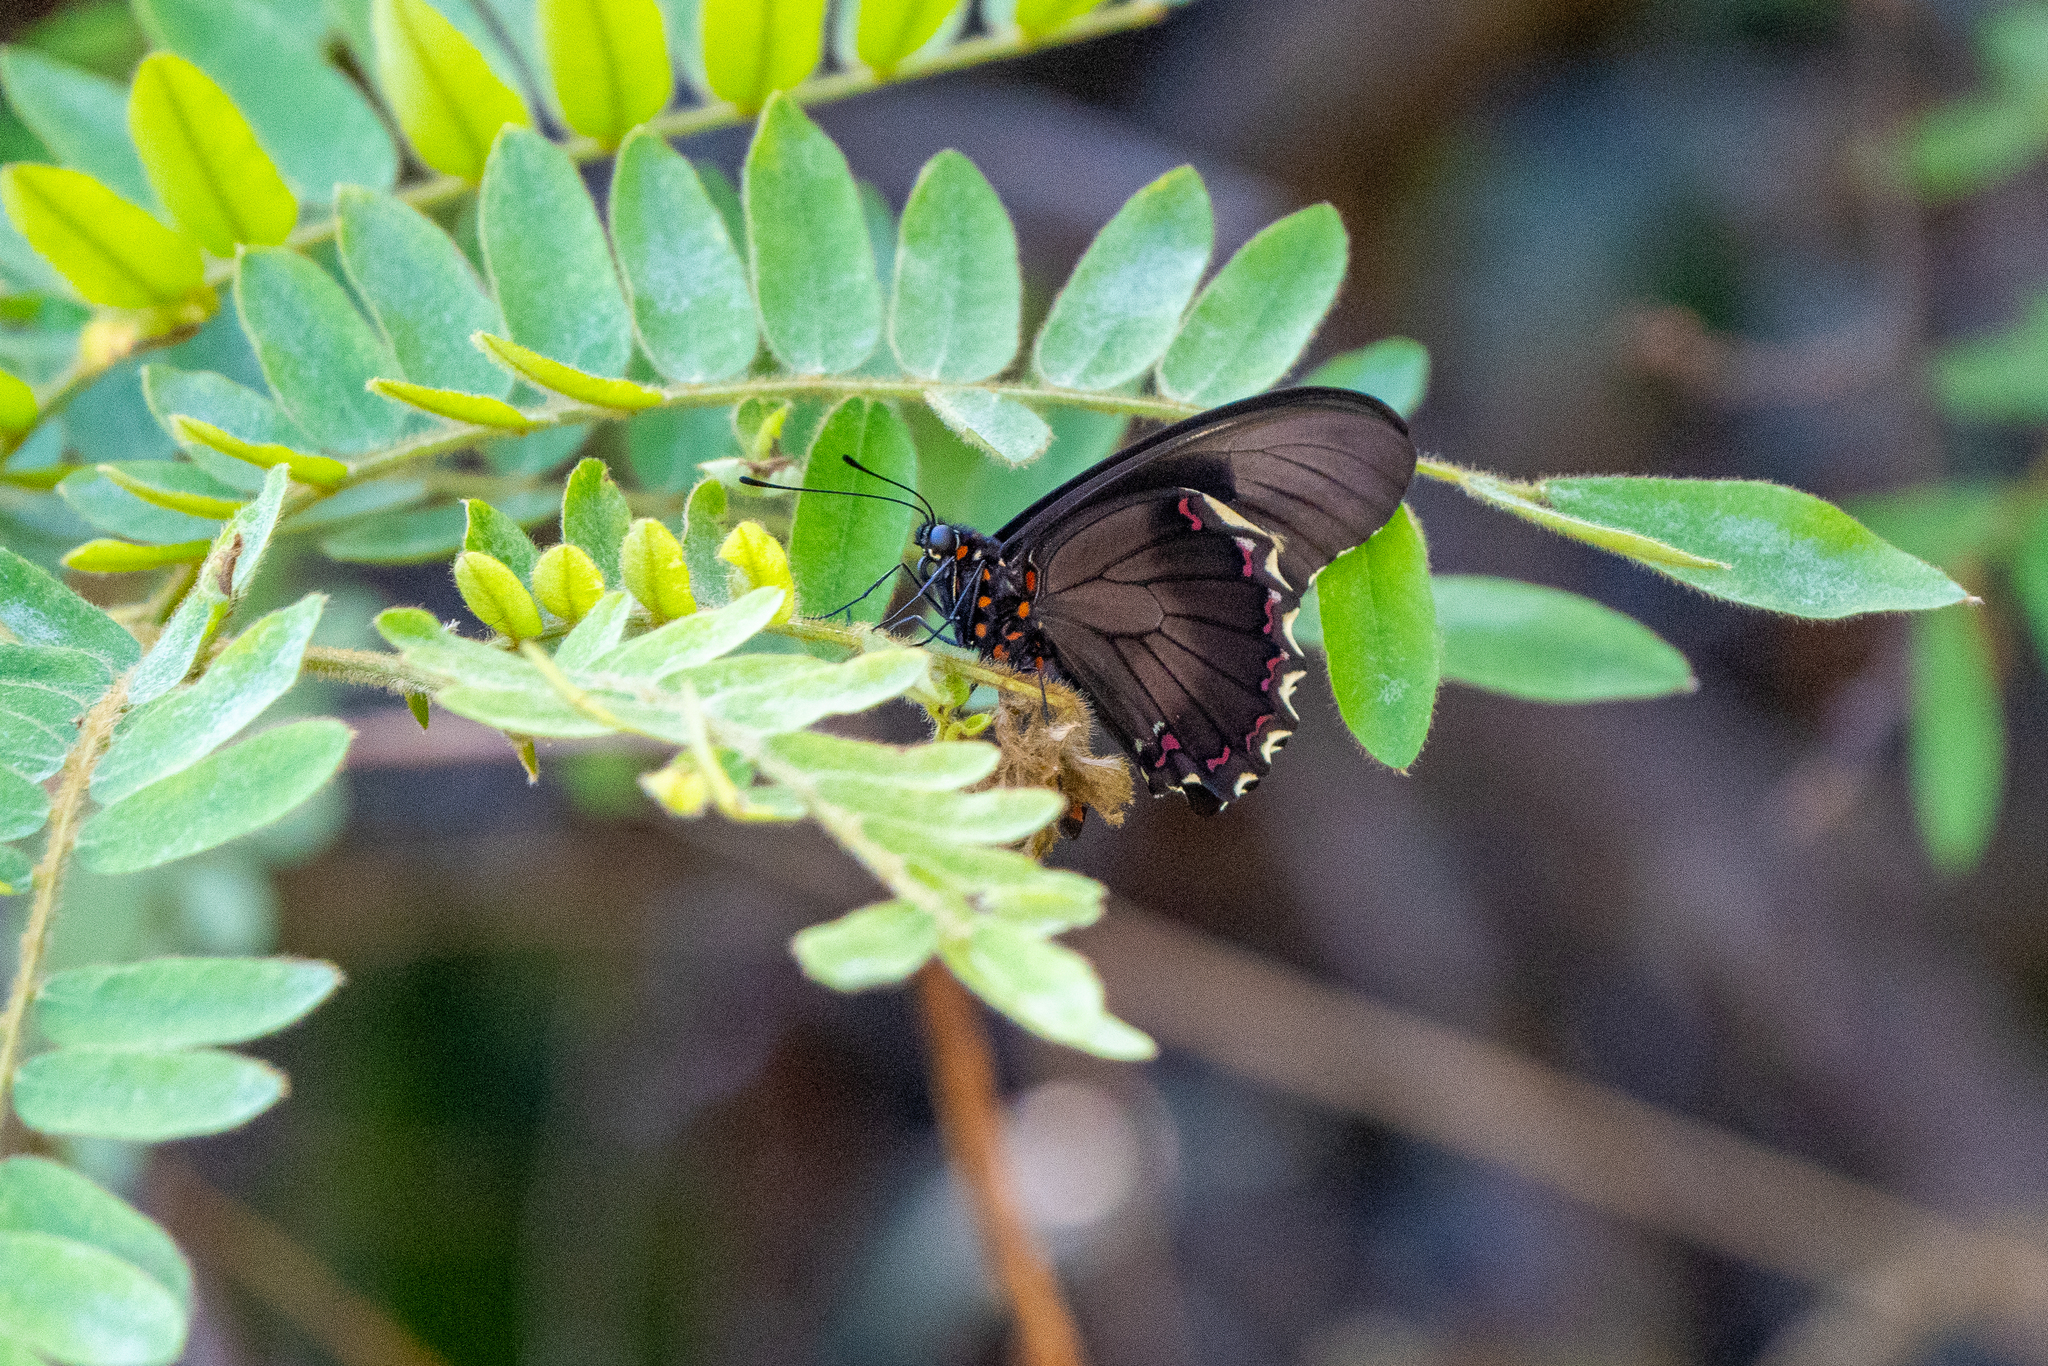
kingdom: Animalia
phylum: Arthropoda
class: Insecta
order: Lepidoptera
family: Papilionidae
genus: Battus
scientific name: Battus polydamas
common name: Polydamas swallowtail
